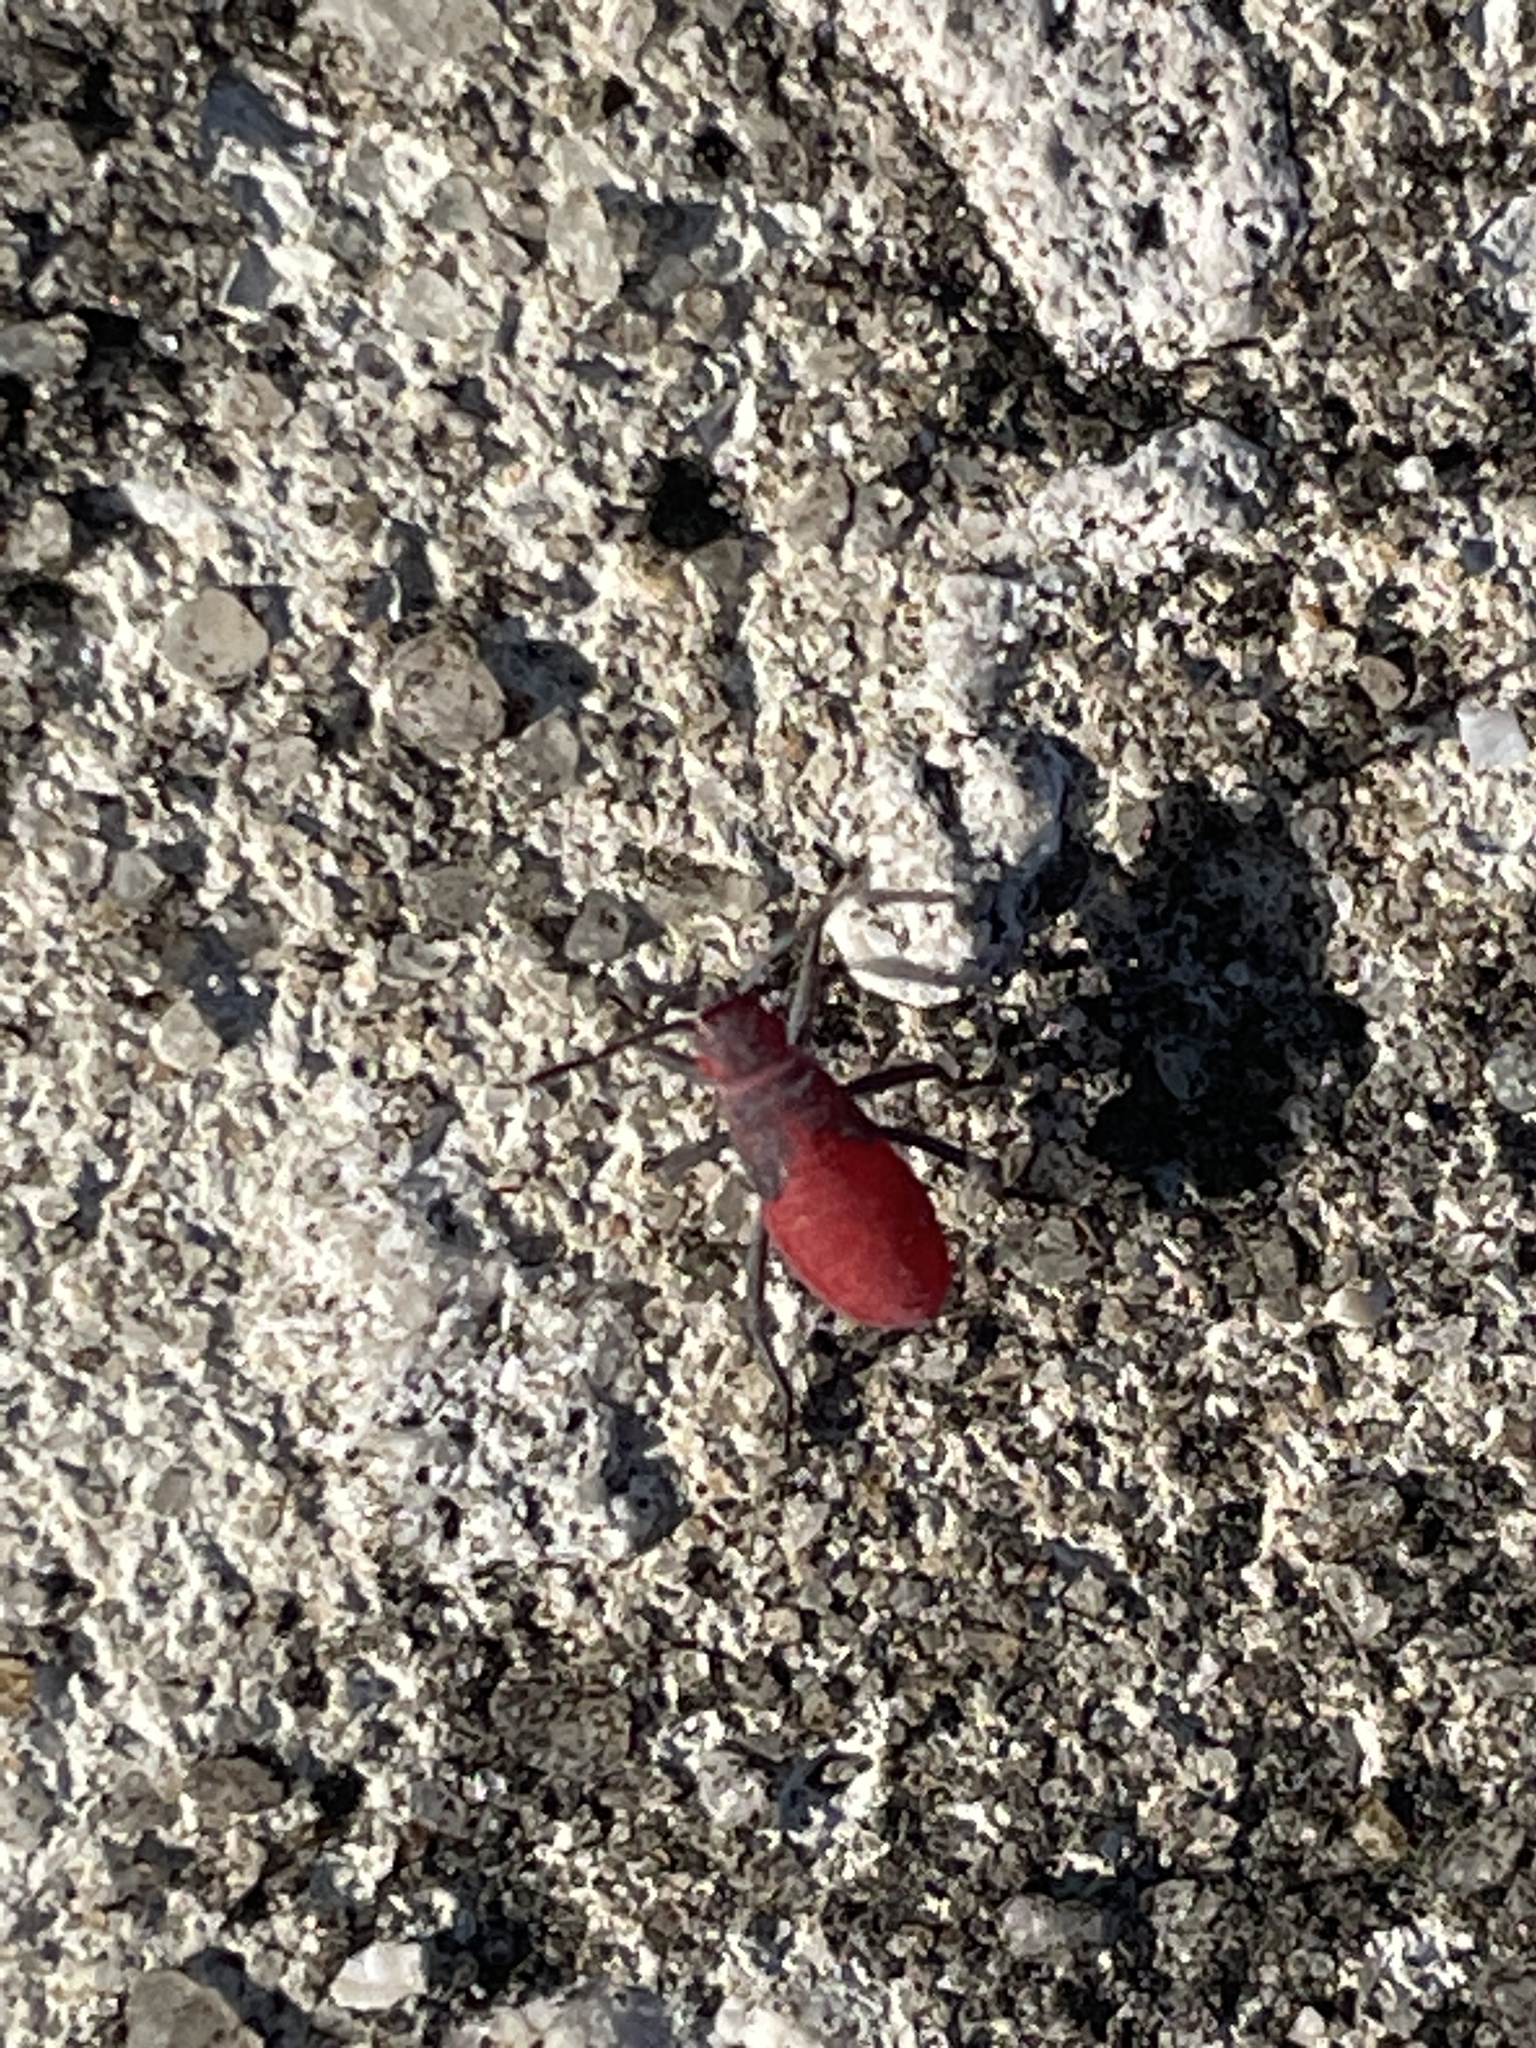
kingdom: Animalia
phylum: Arthropoda
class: Insecta
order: Hemiptera
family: Rhopalidae
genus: Jadera
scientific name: Jadera haematoloma
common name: Red-shouldered bug
